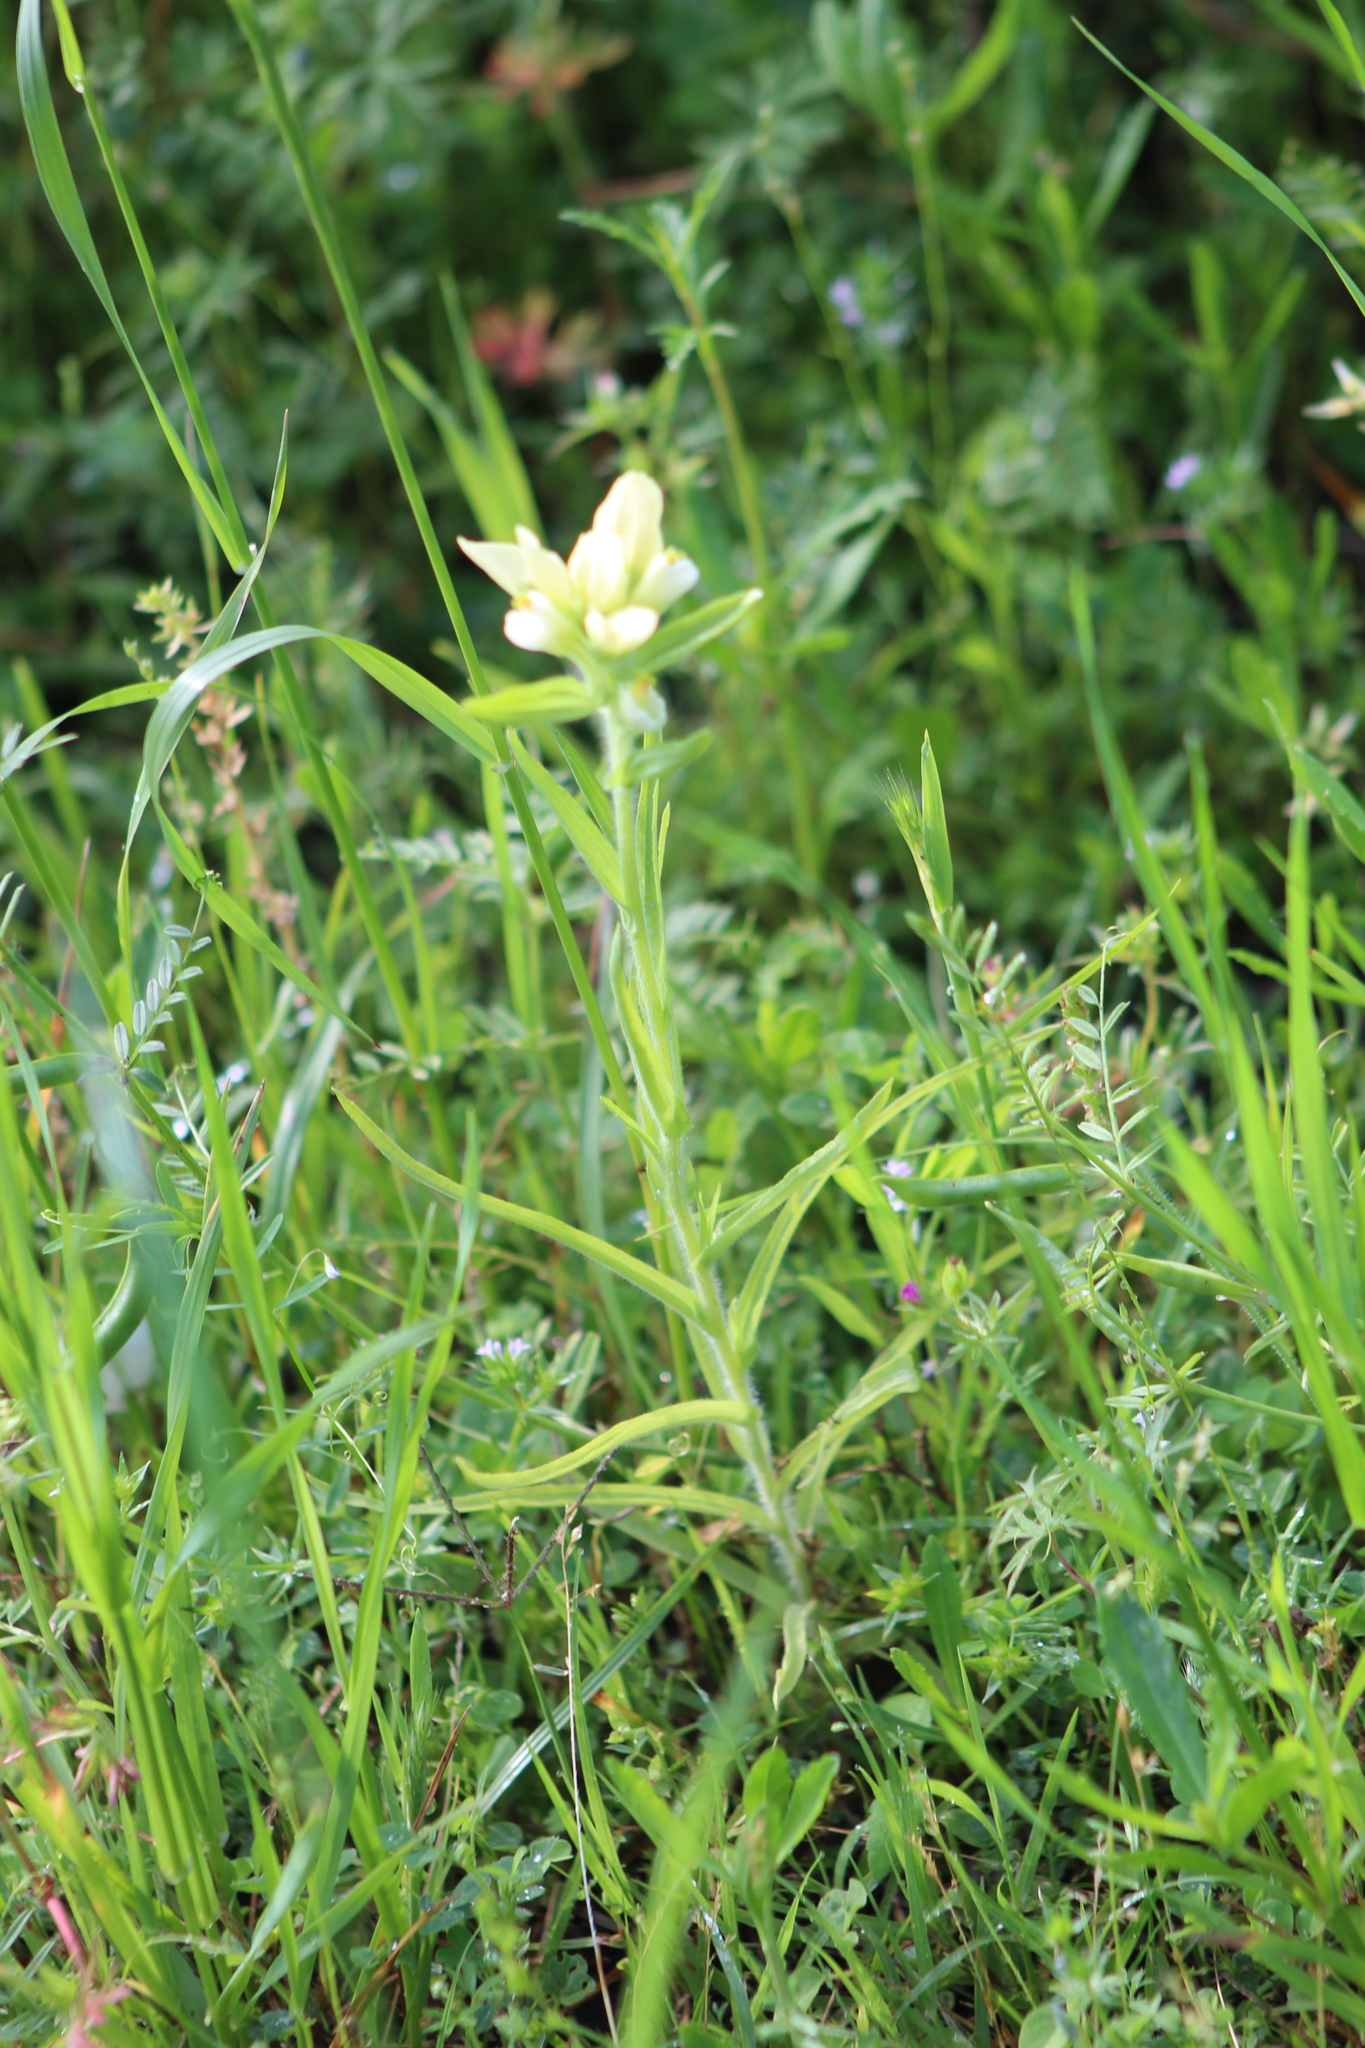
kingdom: Plantae
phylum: Tracheophyta
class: Magnoliopsida
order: Lamiales
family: Orobanchaceae
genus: Castilleja
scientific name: Castilleja indivisa
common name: Texas paintbrush
